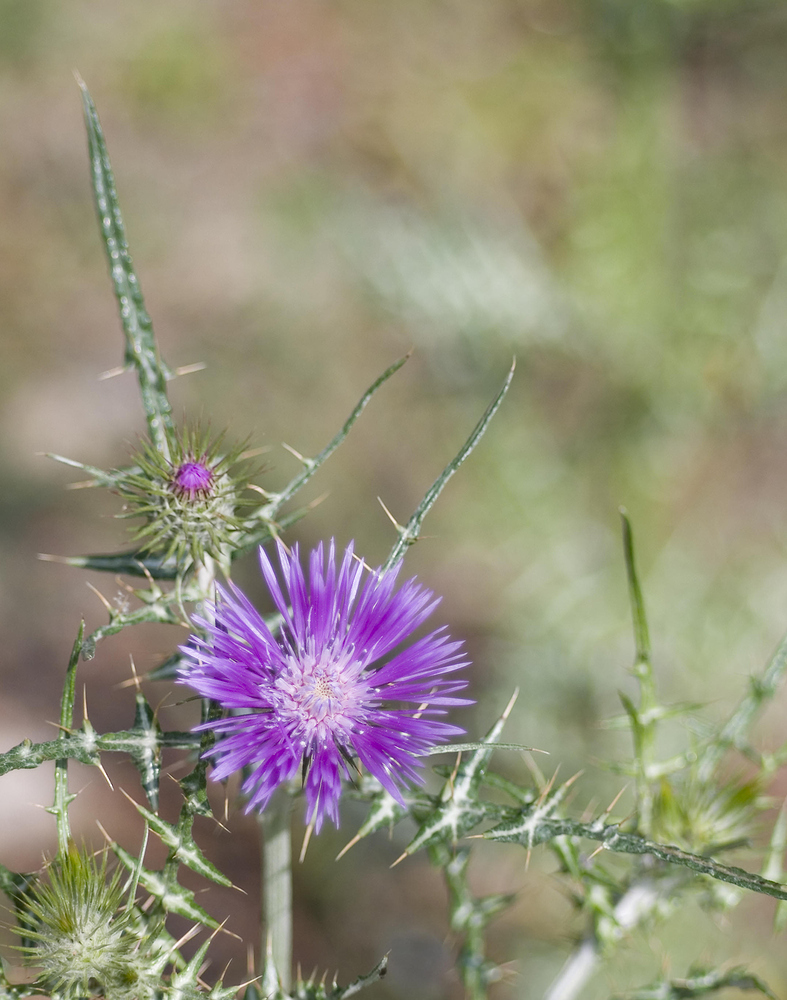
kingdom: Plantae
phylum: Tracheophyta
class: Magnoliopsida
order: Asterales
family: Asteraceae
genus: Galactites
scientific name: Galactites tomentosa
